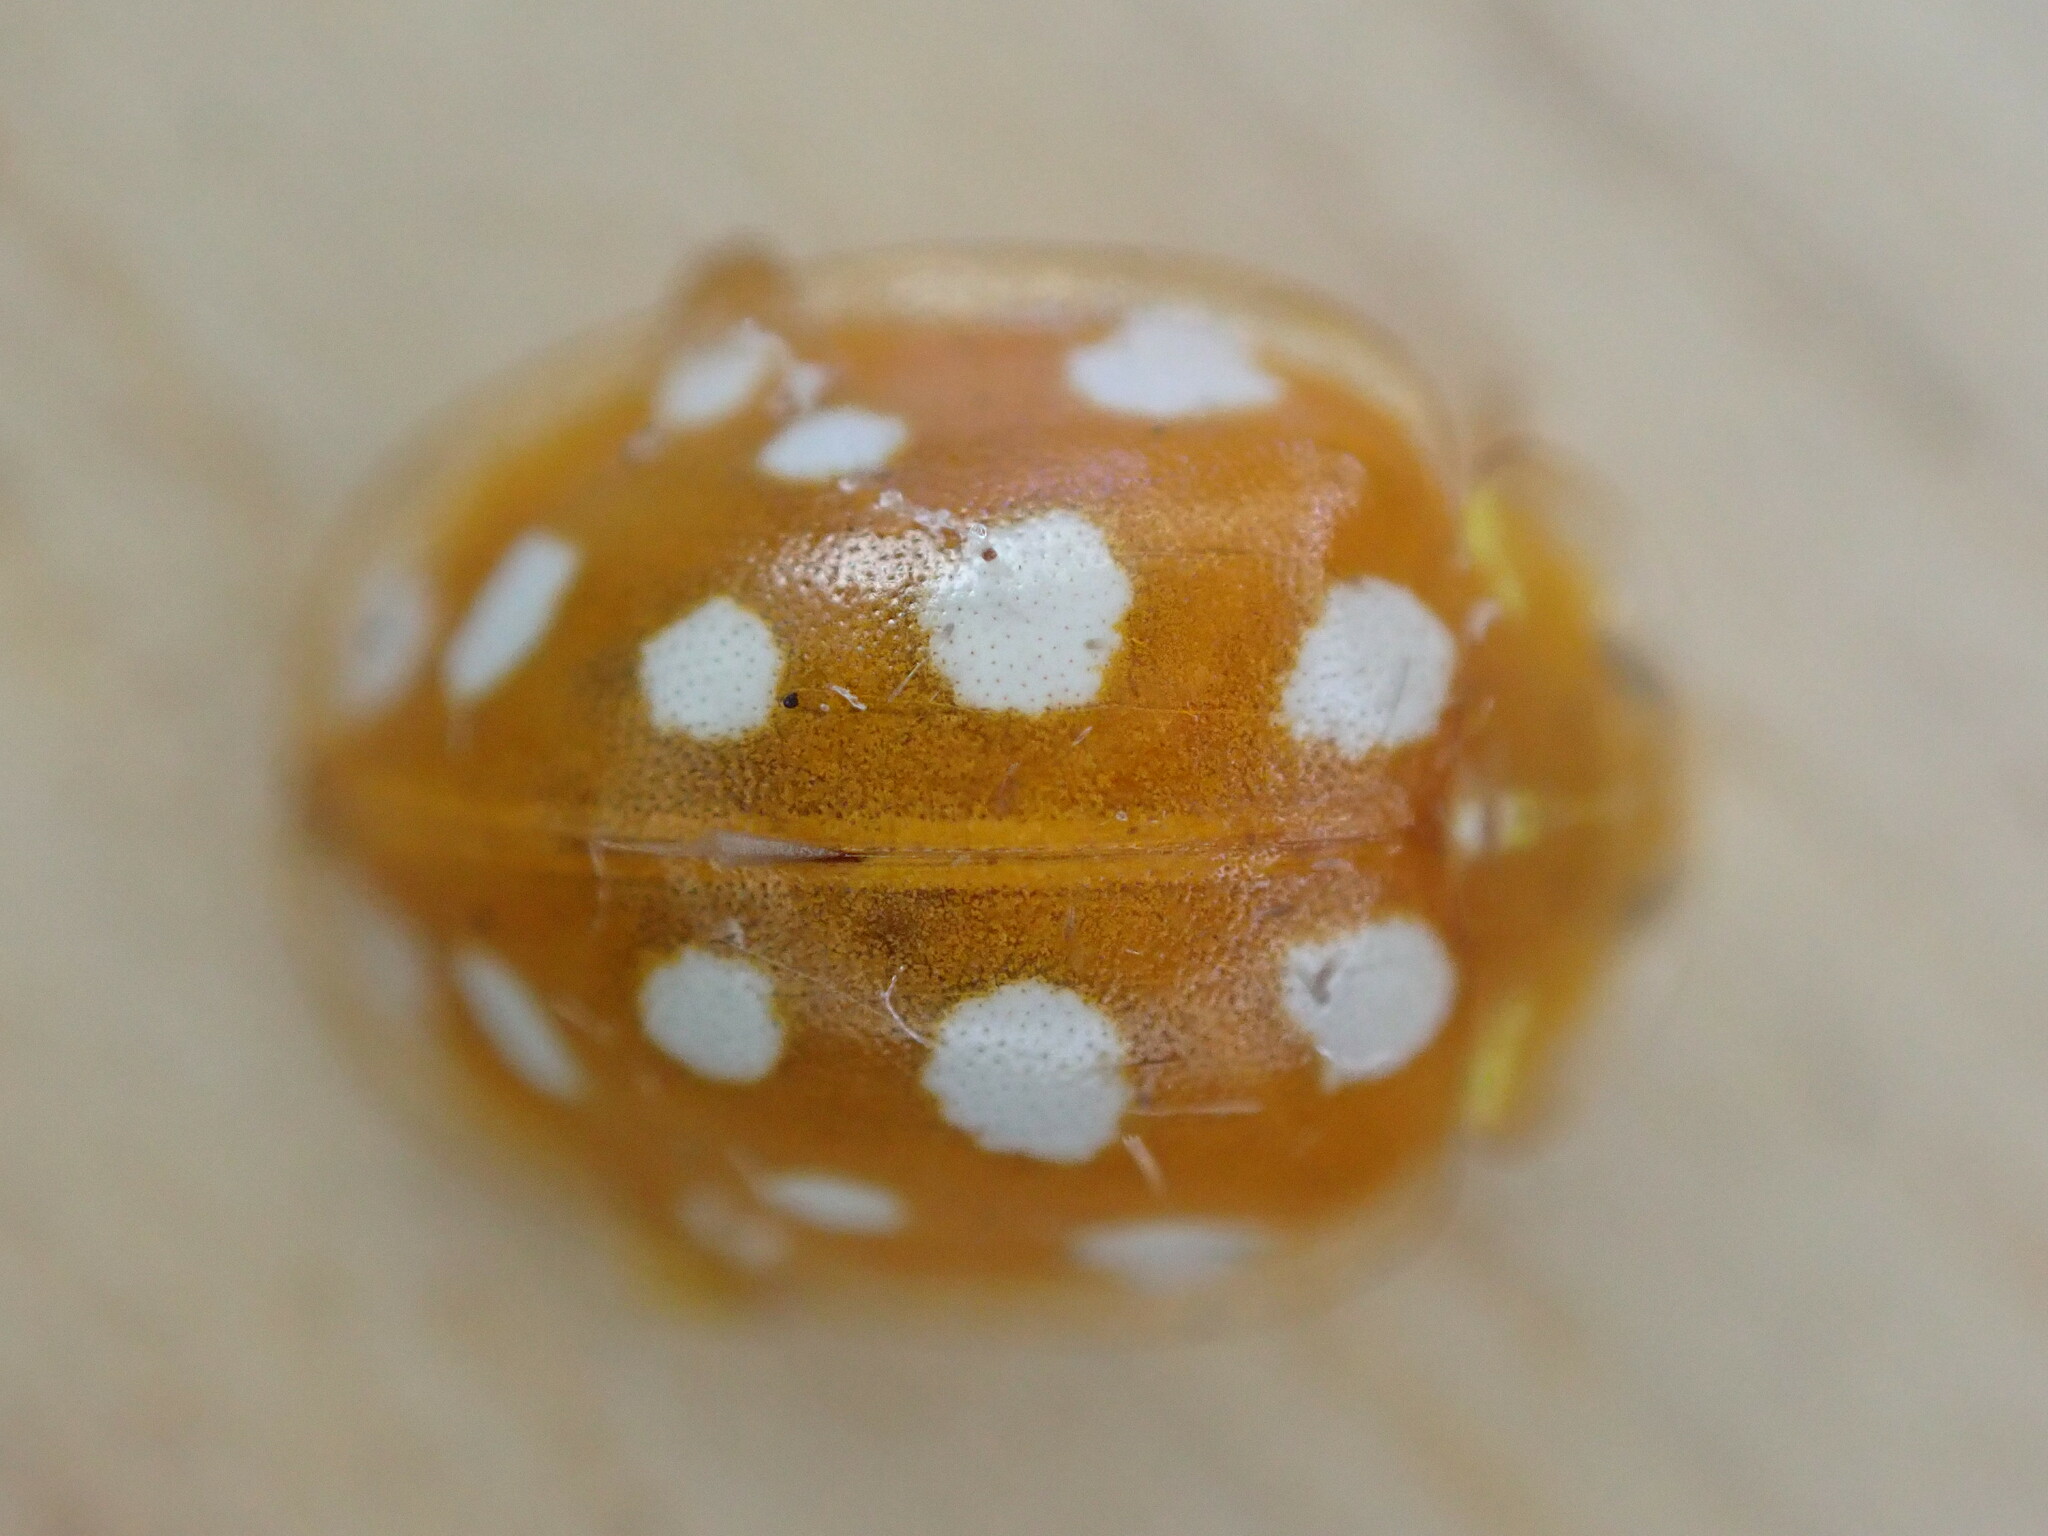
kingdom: Animalia
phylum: Arthropoda
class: Insecta
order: Coleoptera
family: Coccinellidae
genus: Halyzia
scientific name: Halyzia sedecimguttata
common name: Orange ladybird
